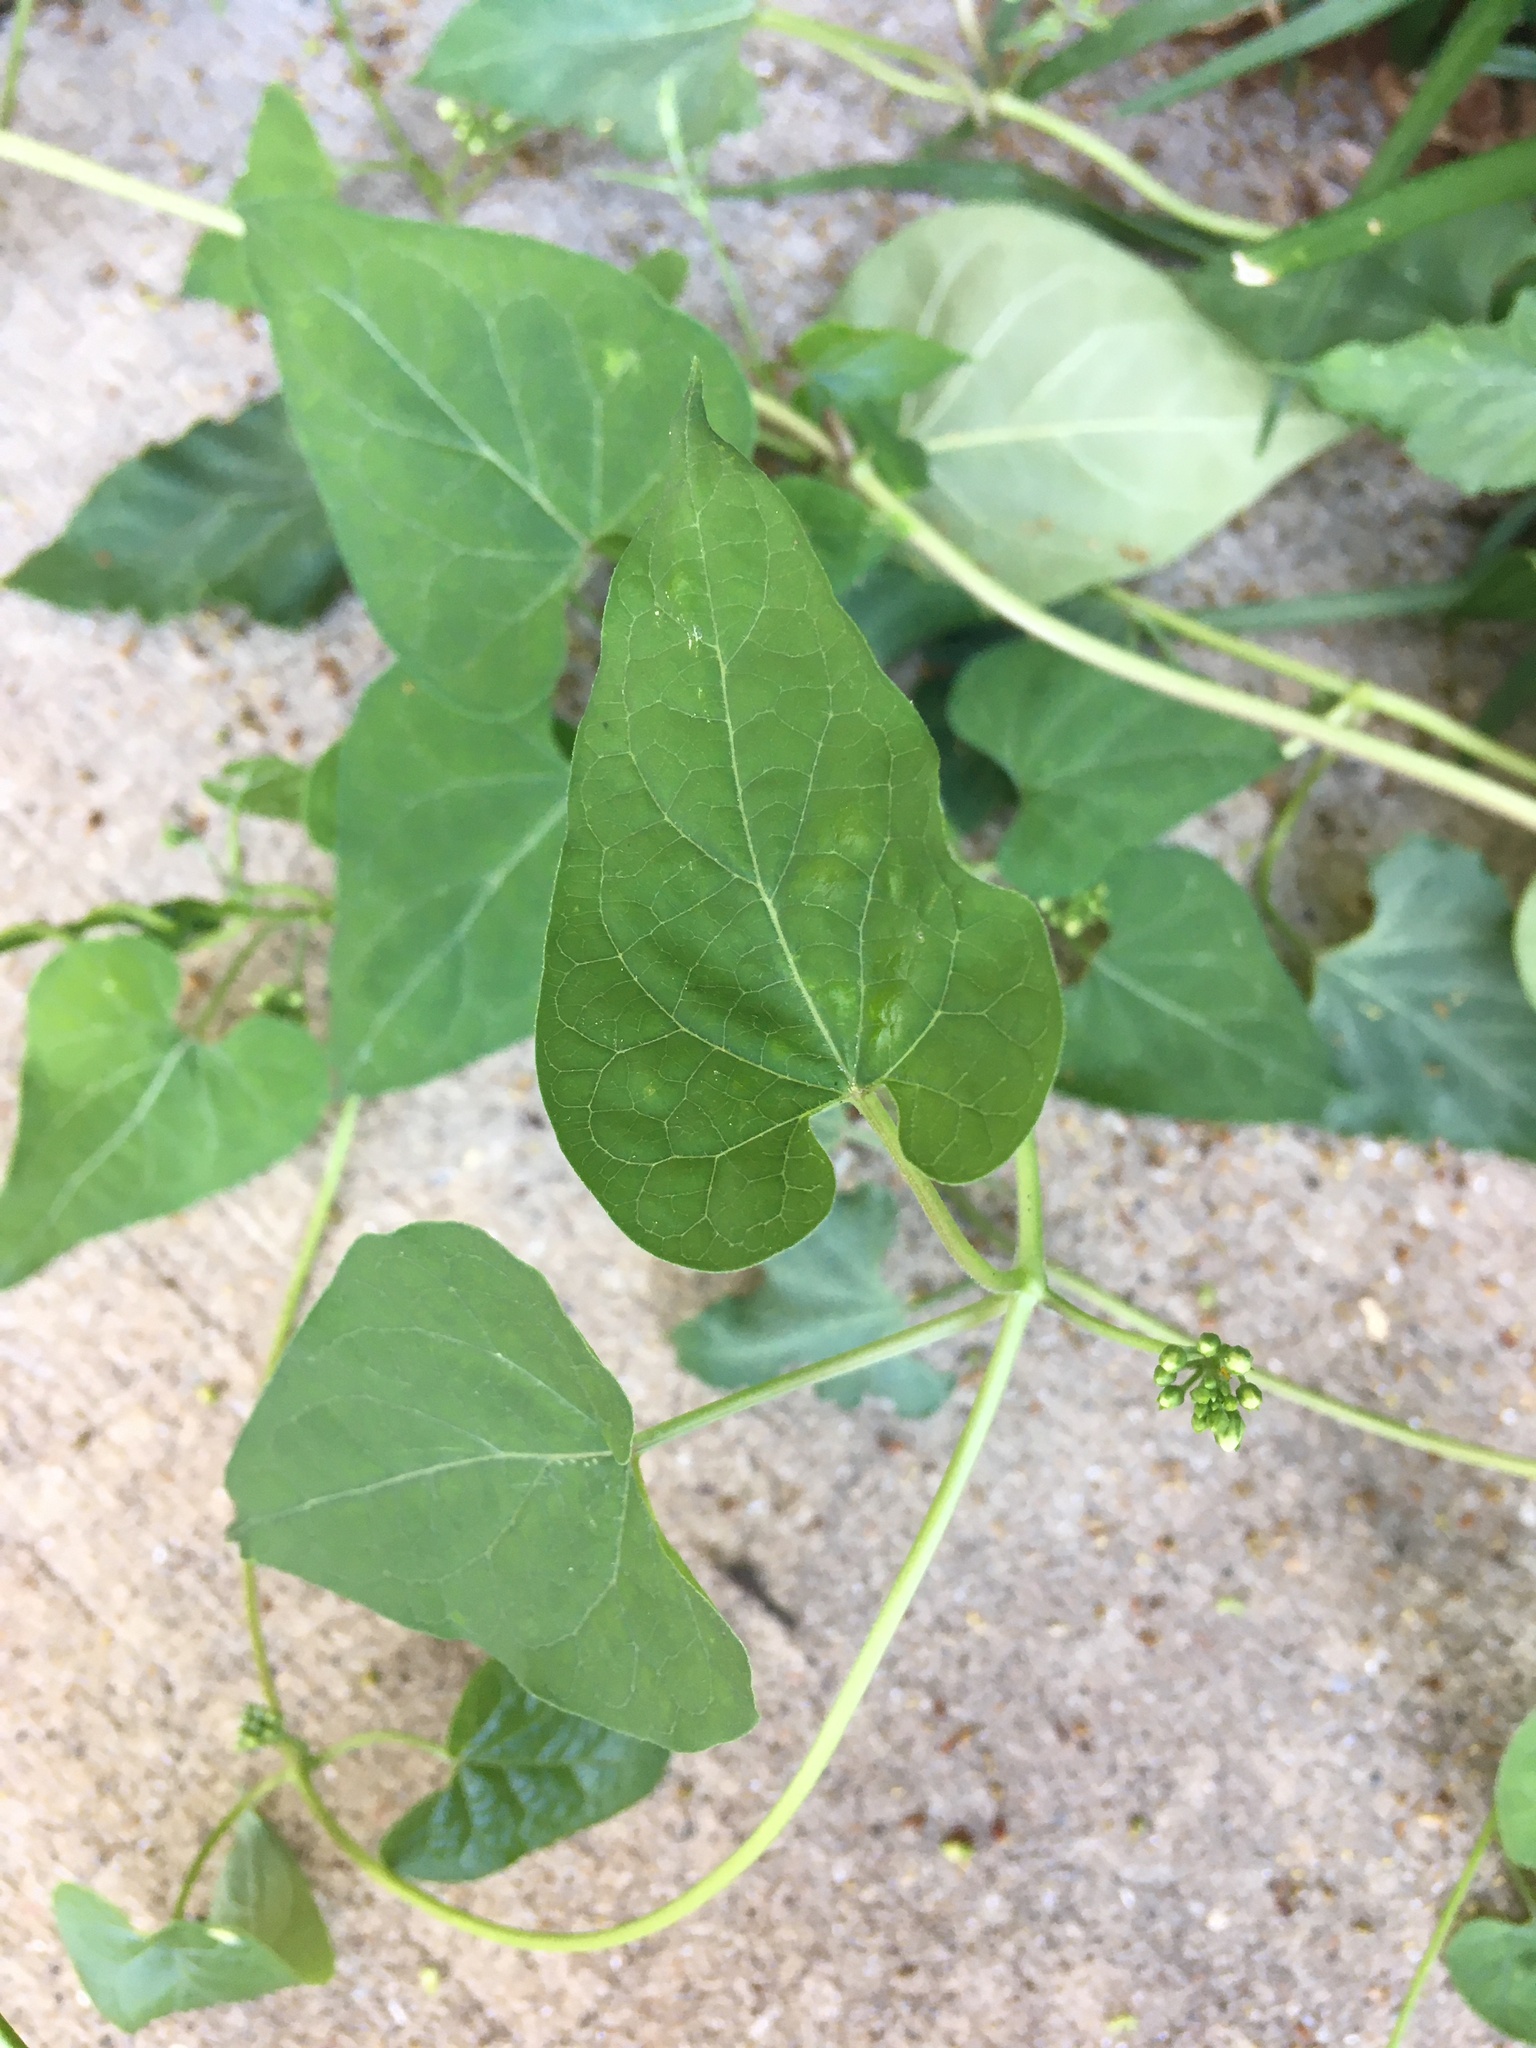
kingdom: Plantae
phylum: Tracheophyta
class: Magnoliopsida
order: Gentianales
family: Apocynaceae
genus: Cynanchum
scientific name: Cynanchum laeve
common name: Sandvine
